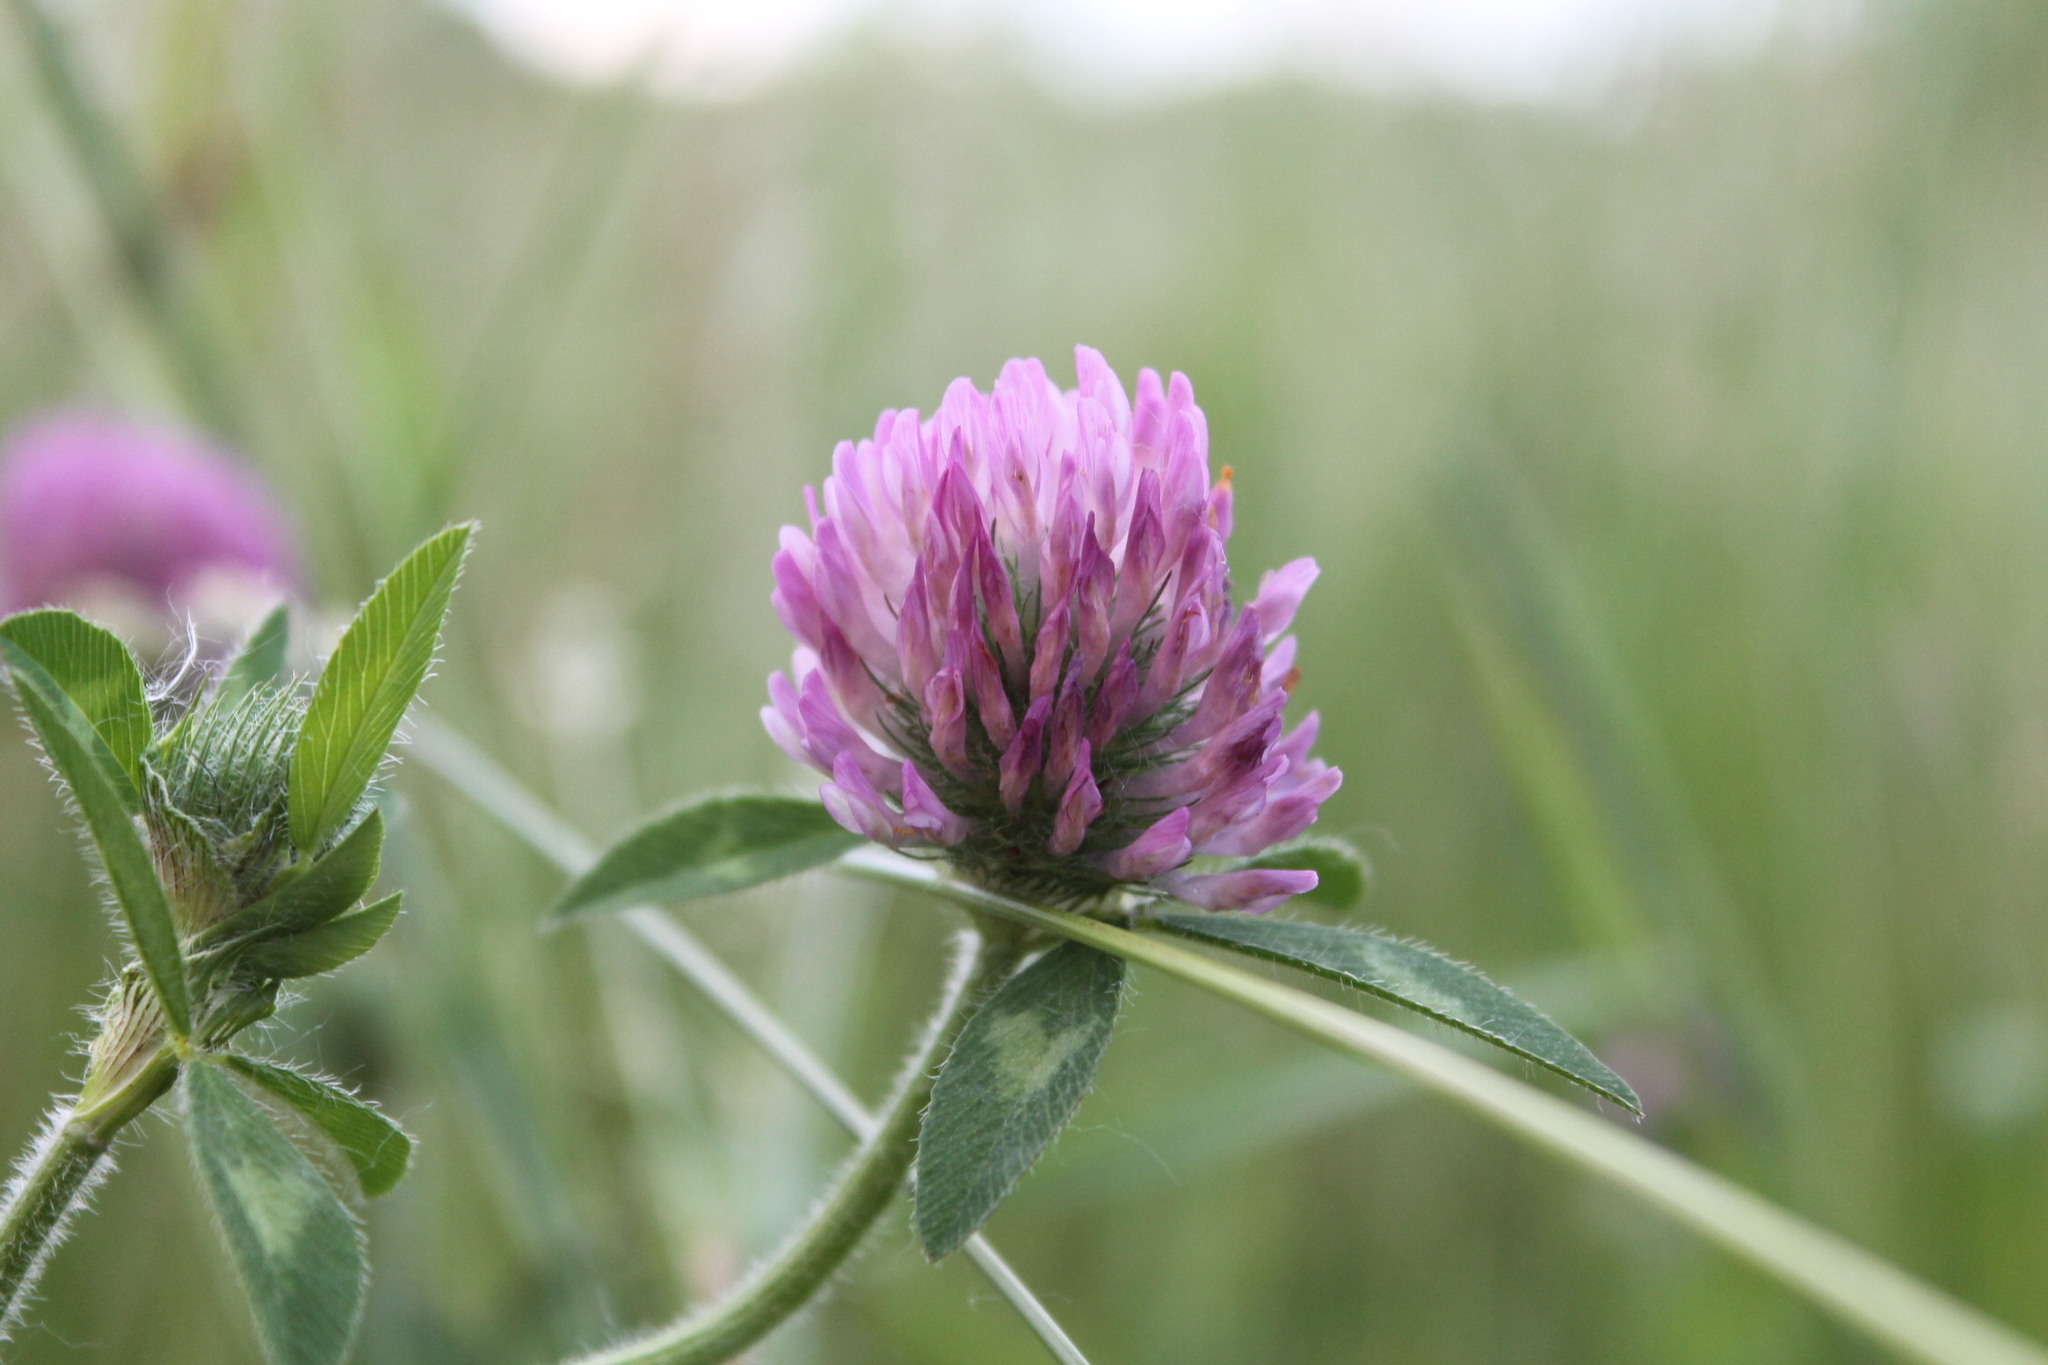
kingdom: Plantae
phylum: Tracheophyta
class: Magnoliopsida
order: Fabales
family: Fabaceae
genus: Trifolium
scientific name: Trifolium pratense
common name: Red clover
